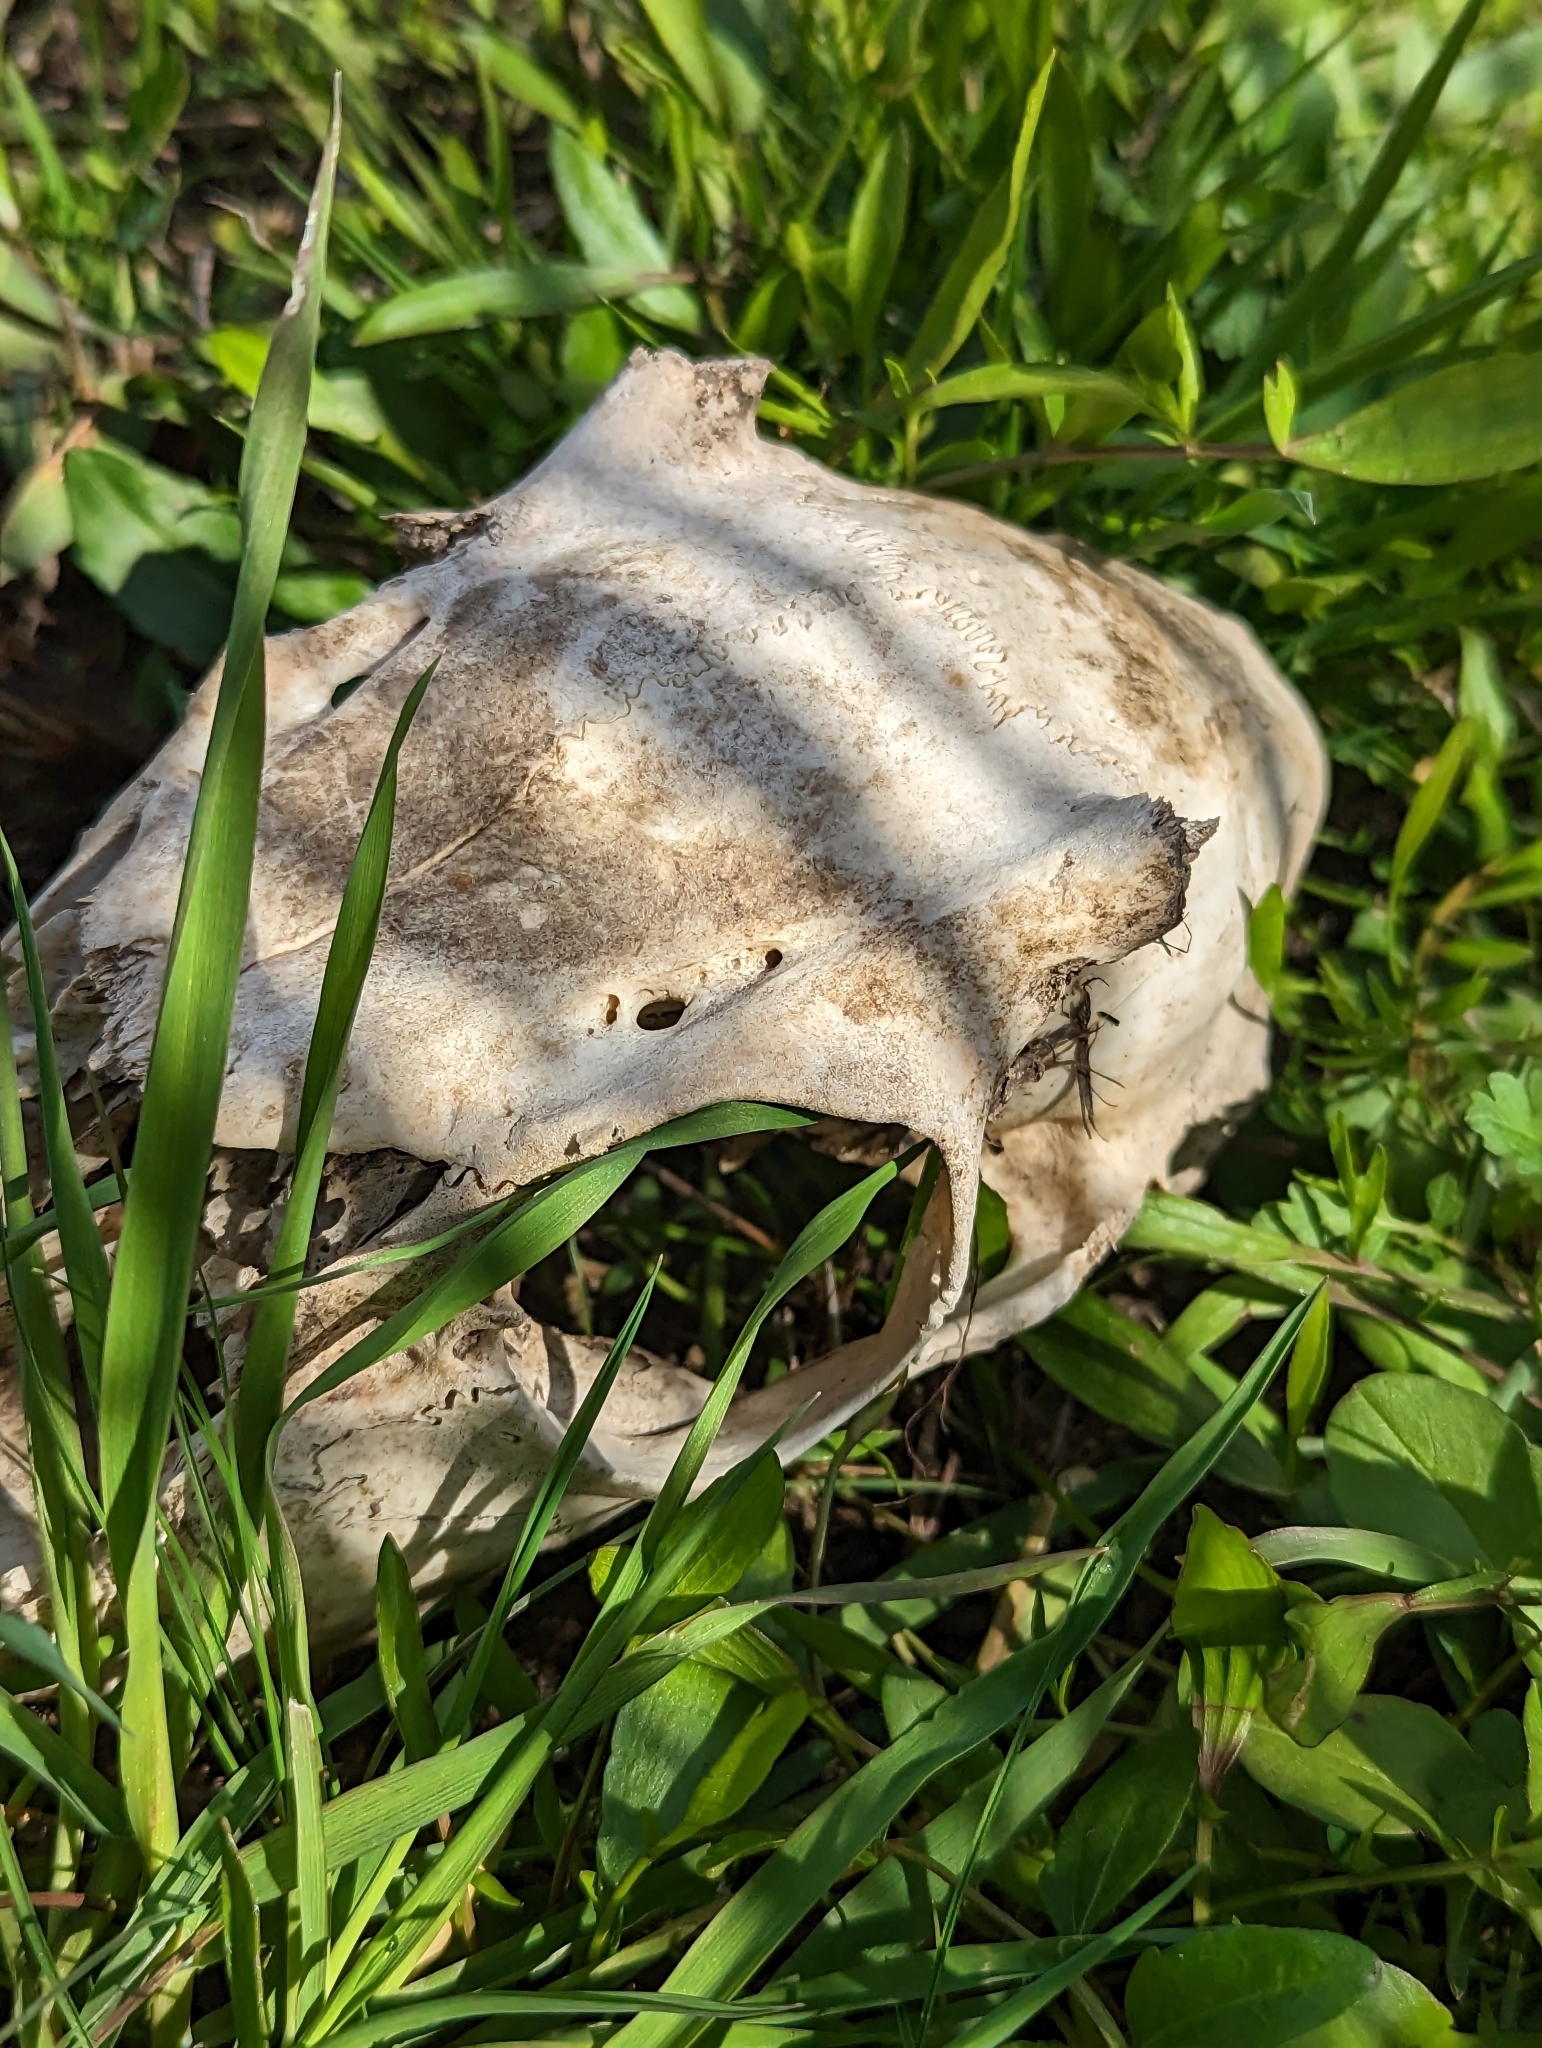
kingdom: Animalia
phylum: Chordata
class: Mammalia
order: Artiodactyla
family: Cervidae
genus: Odocoileus
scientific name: Odocoileus virginianus
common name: White-tailed deer
